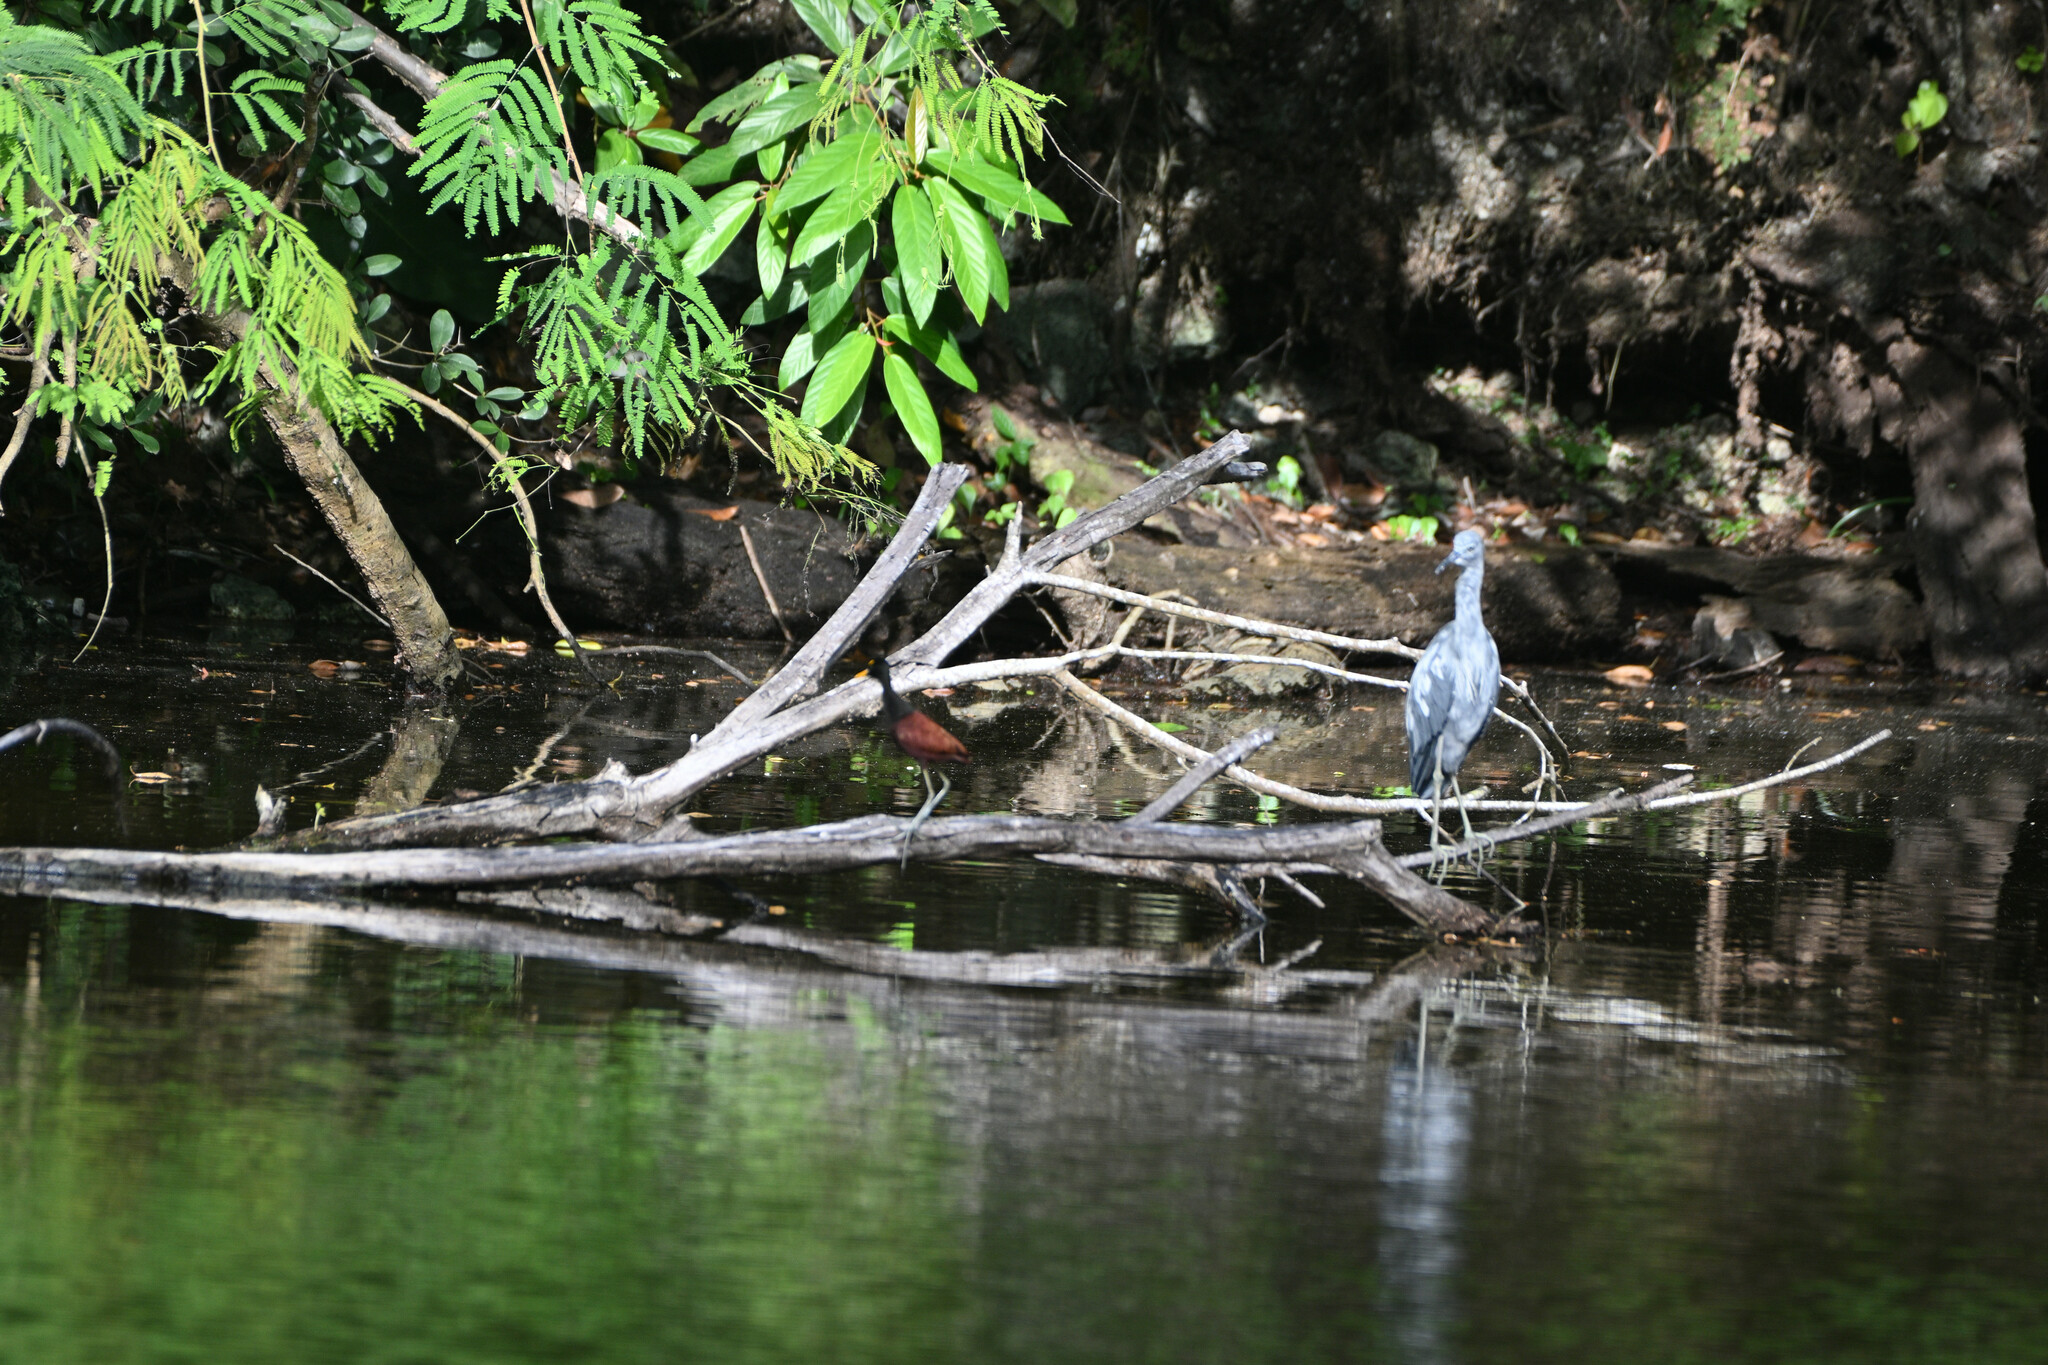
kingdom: Animalia
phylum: Chordata
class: Aves
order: Charadriiformes
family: Jacanidae
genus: Jacana
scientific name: Jacana spinosa
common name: Northern jacana
